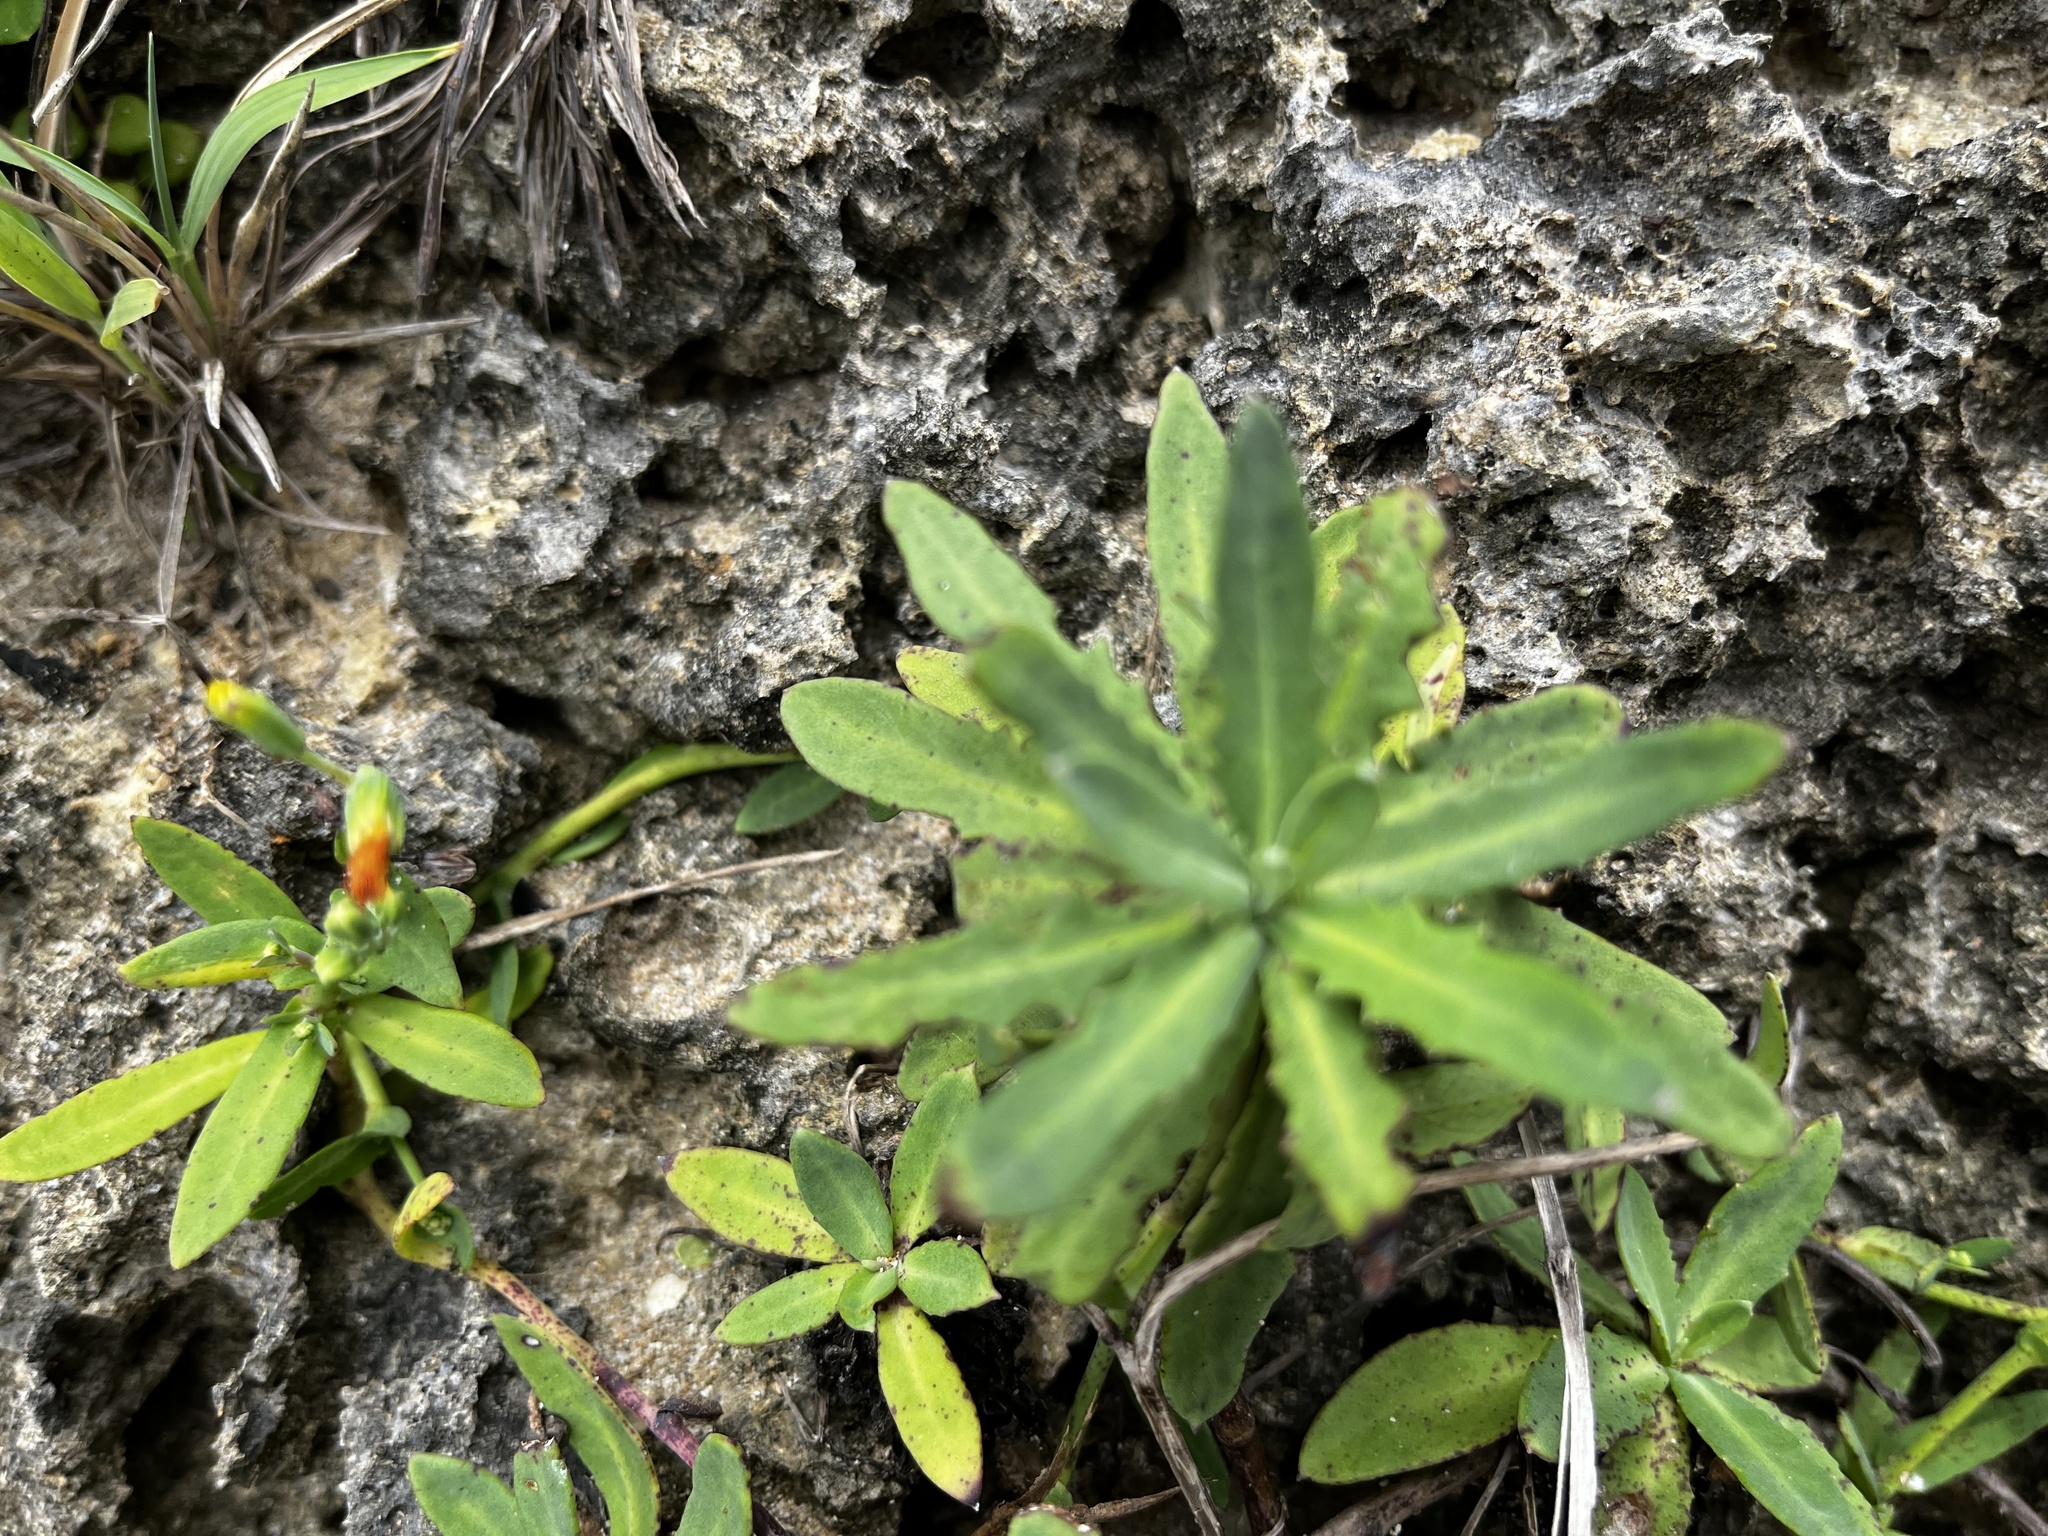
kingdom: Plantae
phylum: Tracheophyta
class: Magnoliopsida
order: Asterales
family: Asteraceae
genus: Crepidiastrum
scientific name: Crepidiastrum lanceolatum
